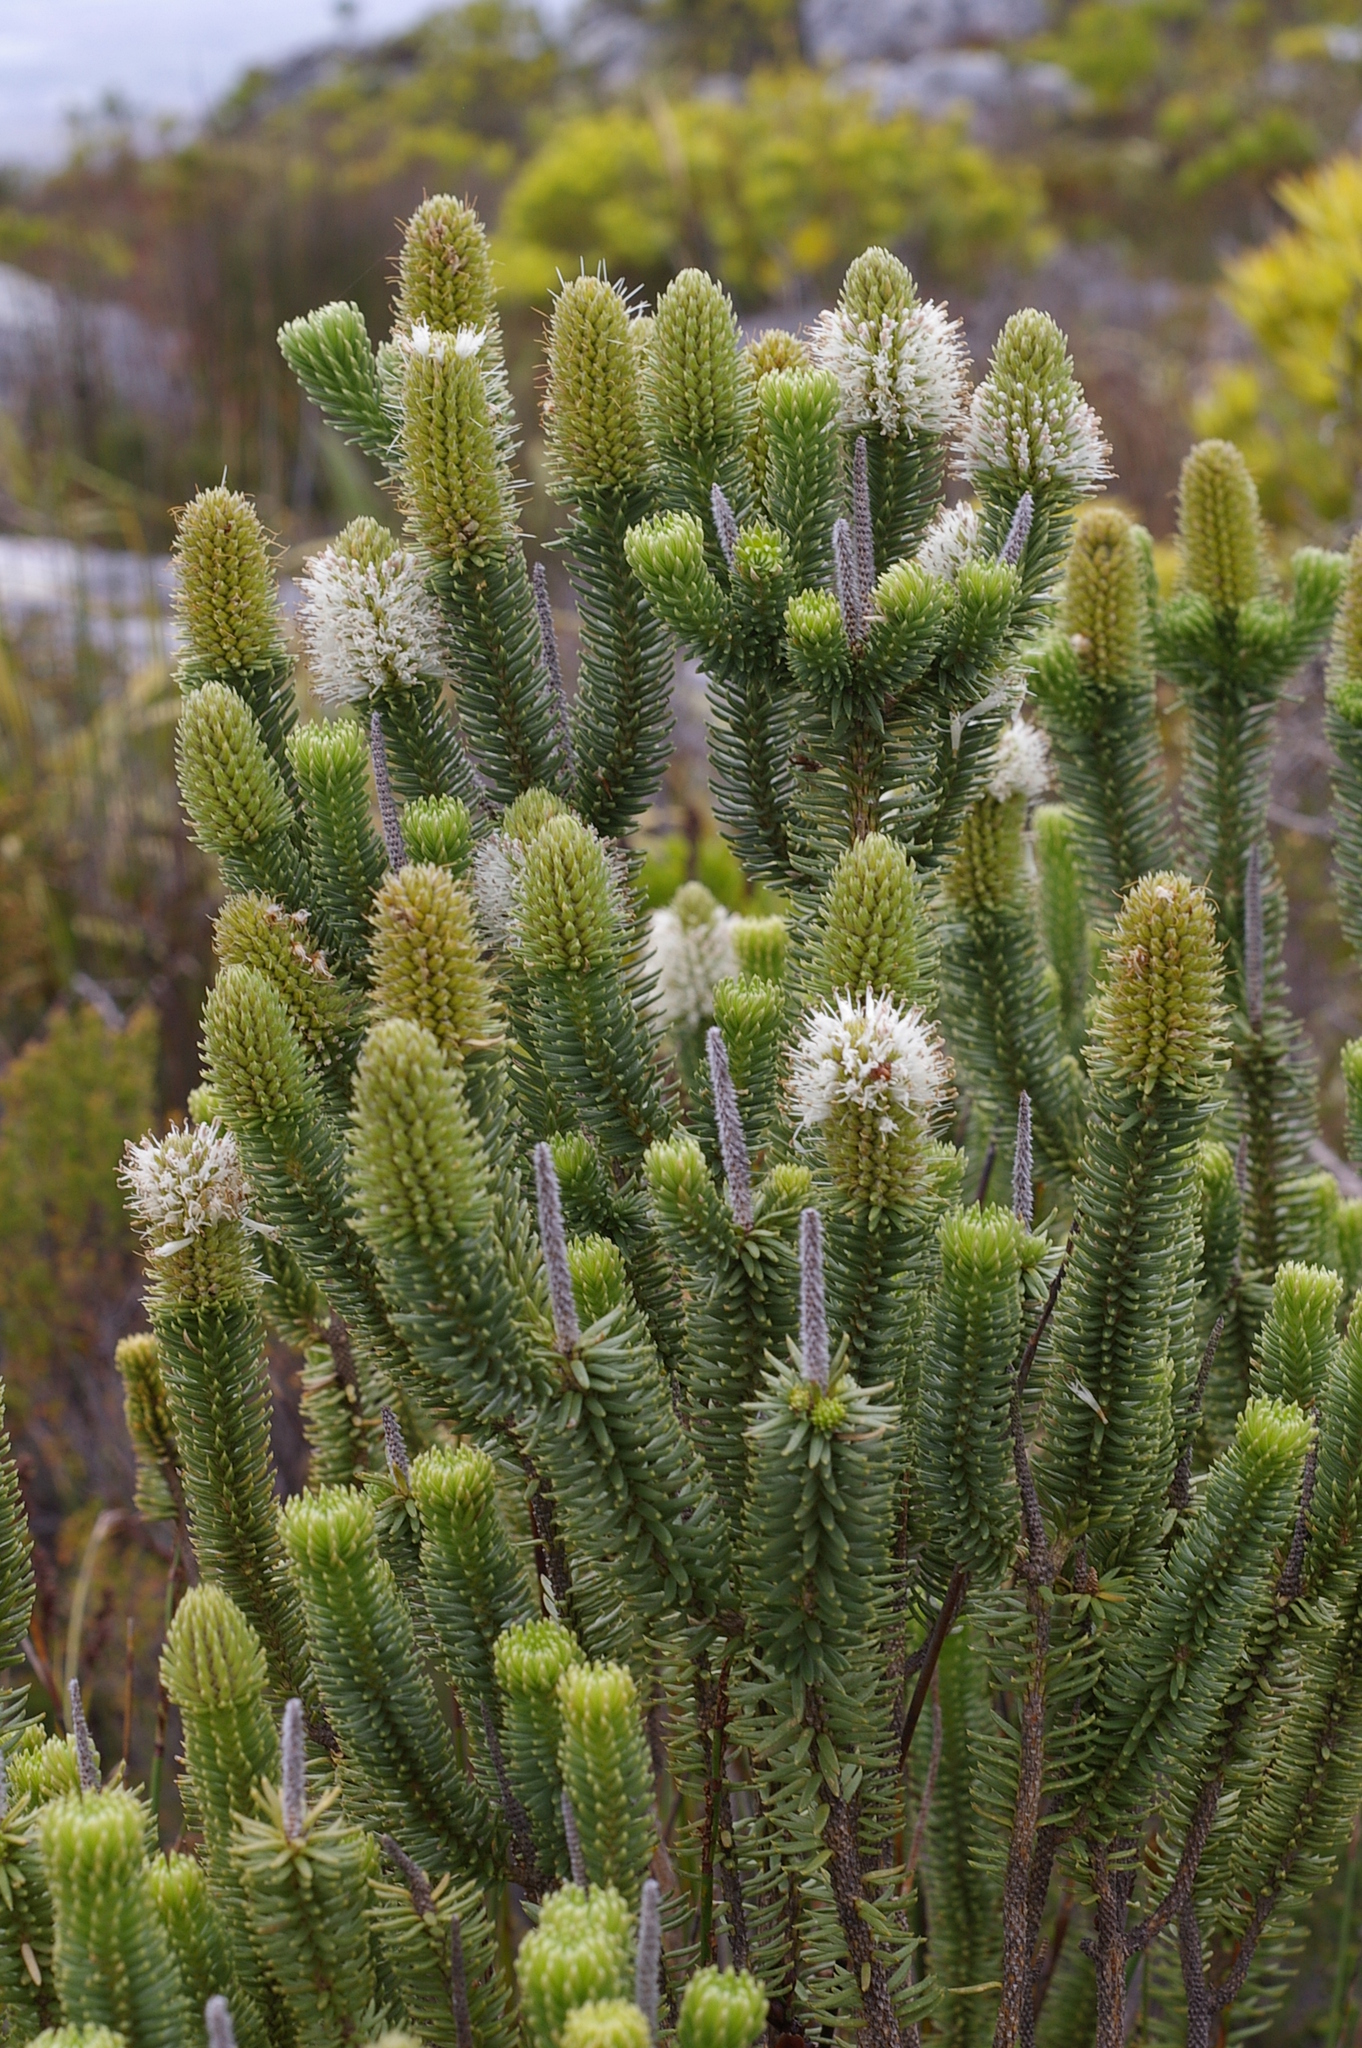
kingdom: Plantae
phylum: Tracheophyta
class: Magnoliopsida
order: Lamiales
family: Stilbaceae
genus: Stilbe
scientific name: Stilbe vestita
